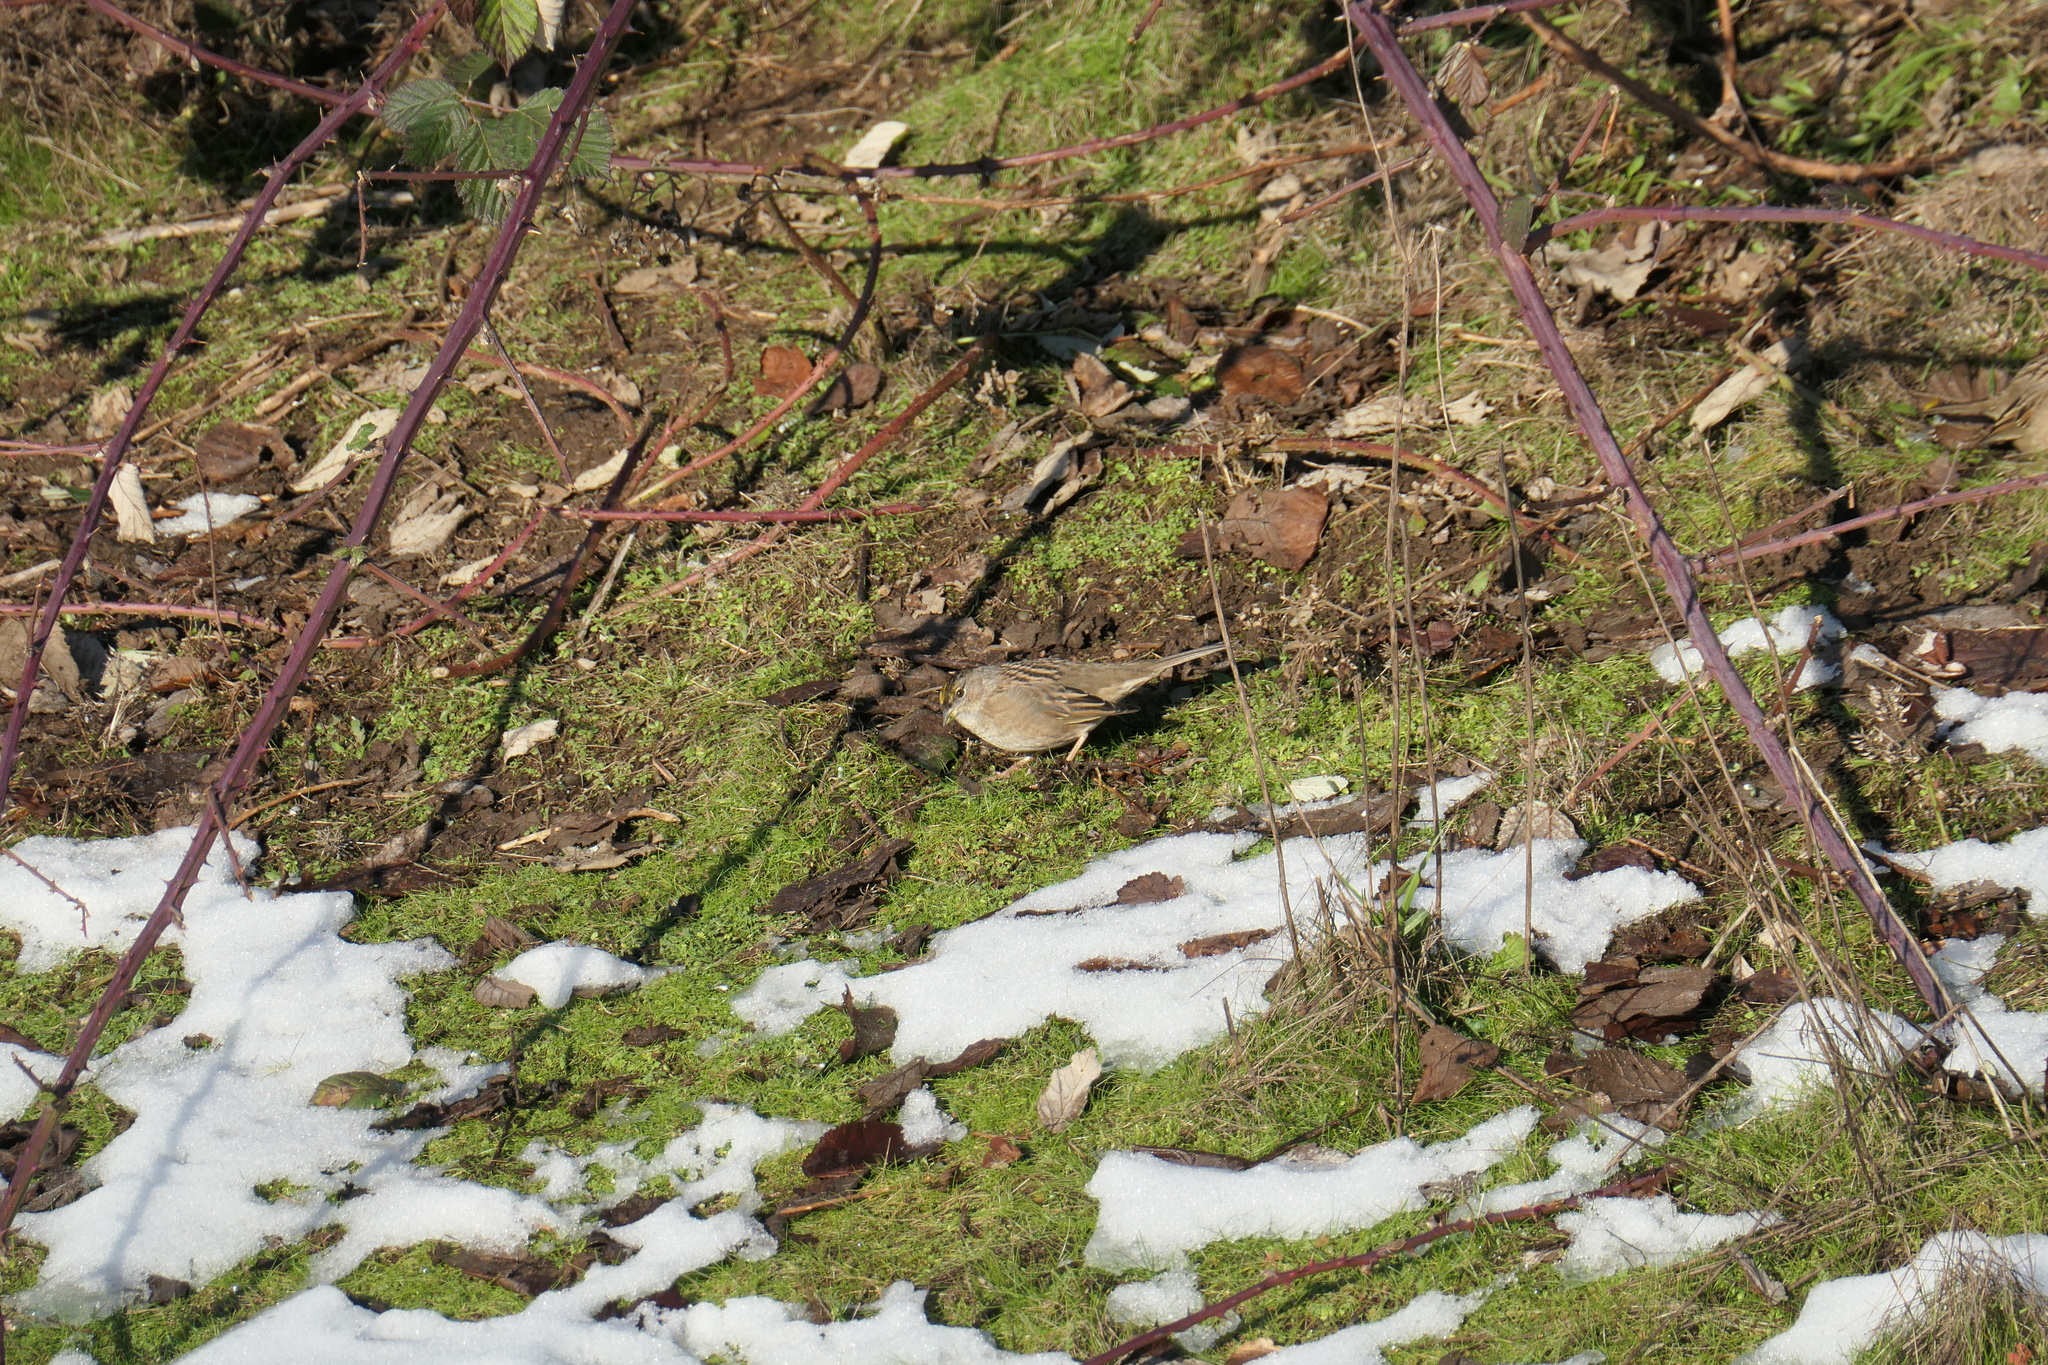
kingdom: Animalia
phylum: Chordata
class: Aves
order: Passeriformes
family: Passerellidae
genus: Zonotrichia
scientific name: Zonotrichia atricapilla
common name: Golden-crowned sparrow
